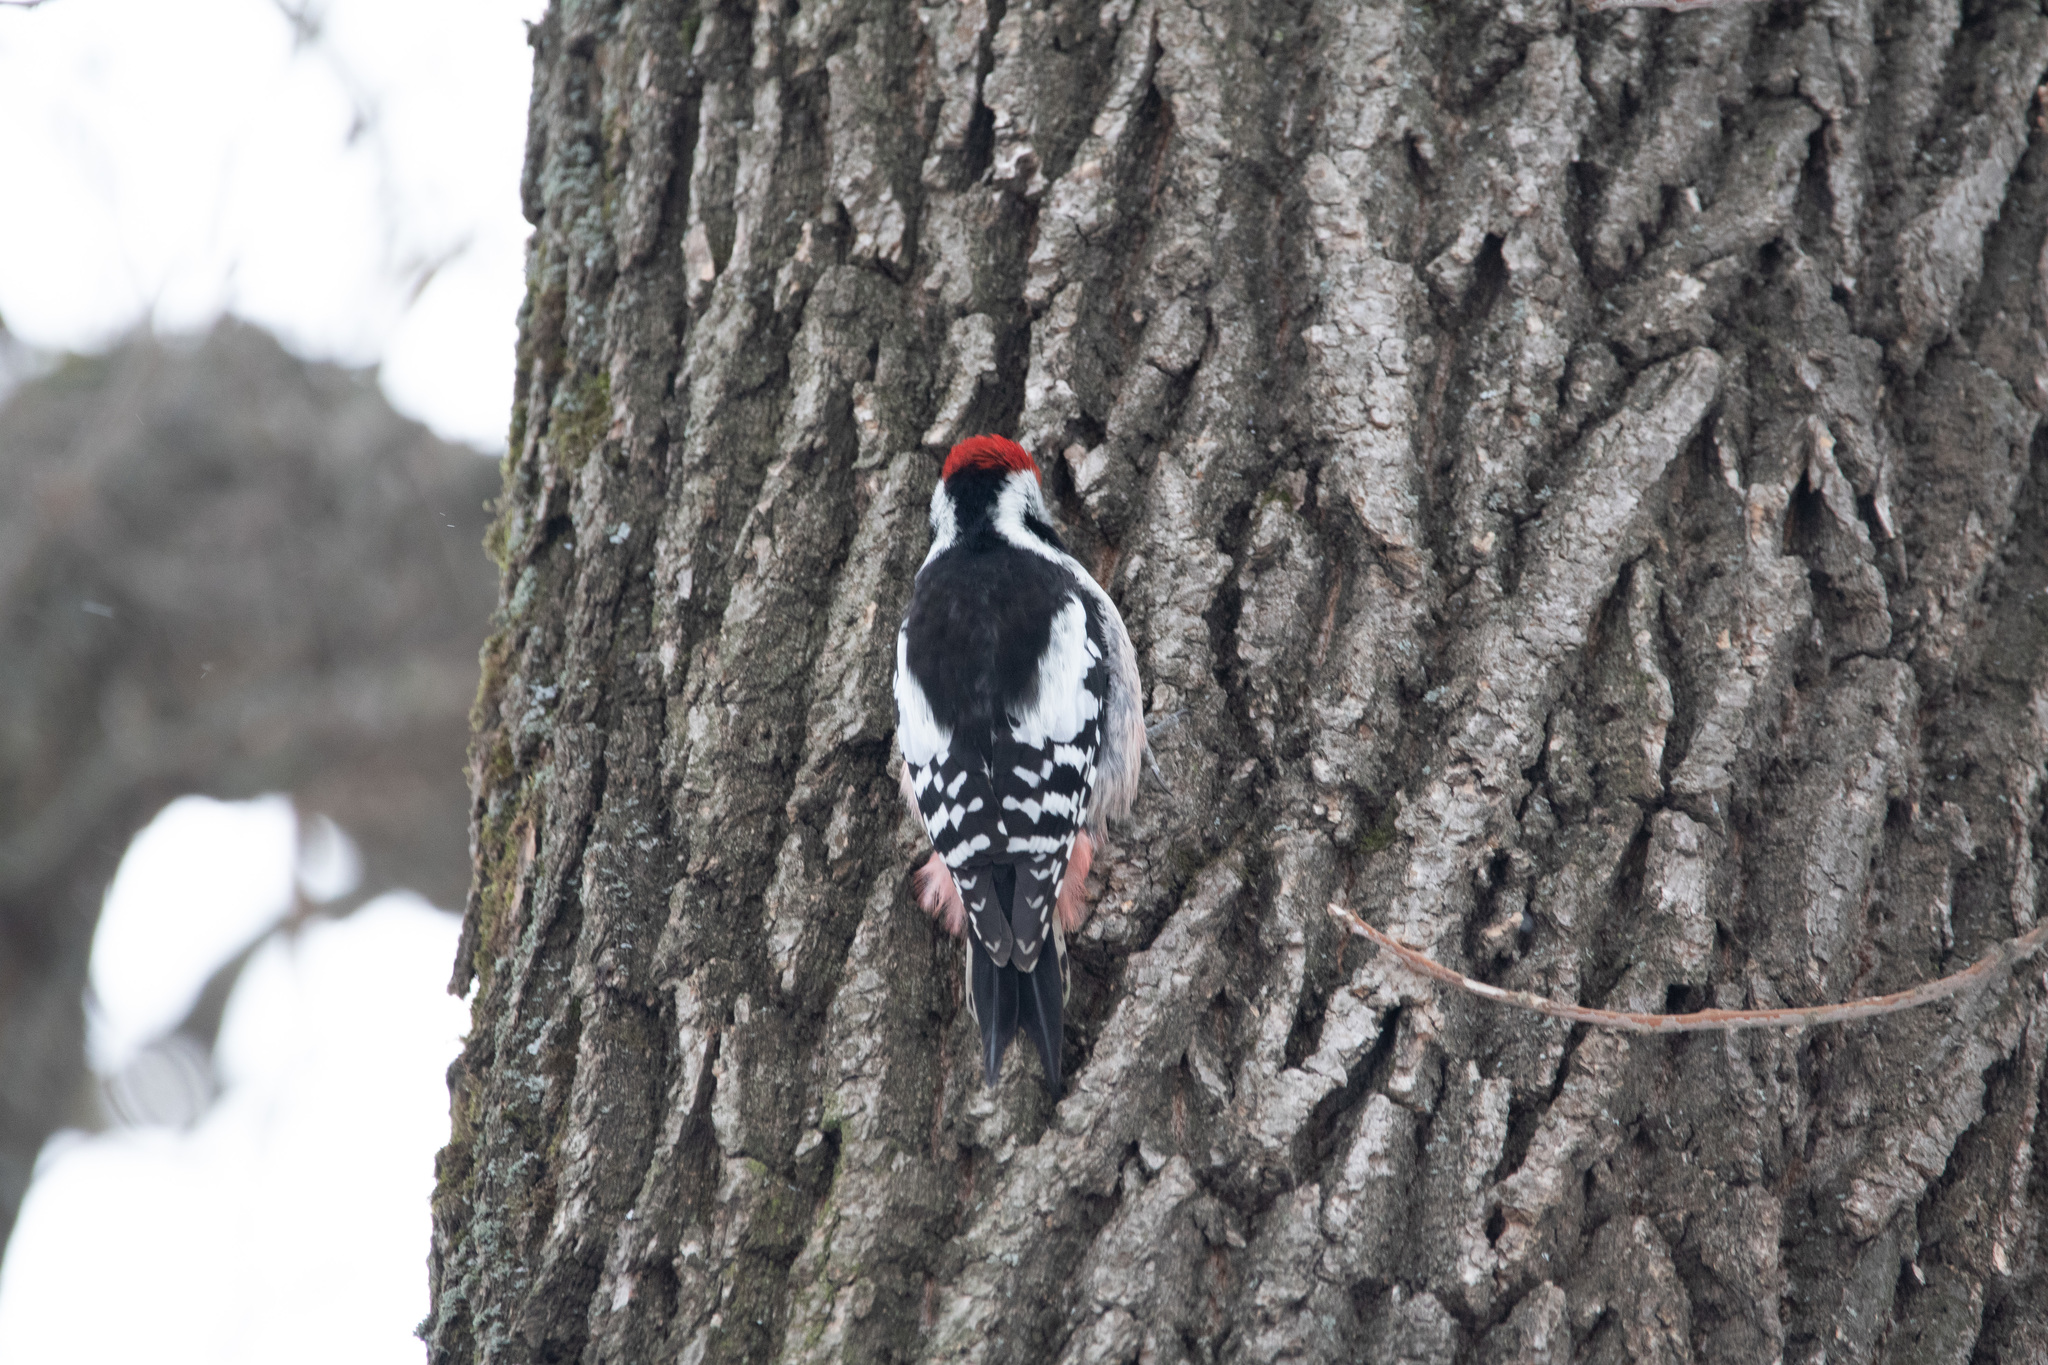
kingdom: Animalia
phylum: Chordata
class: Aves
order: Piciformes
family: Picidae
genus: Dendrocoptes
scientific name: Dendrocoptes medius
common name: Middle spotted woodpecker
